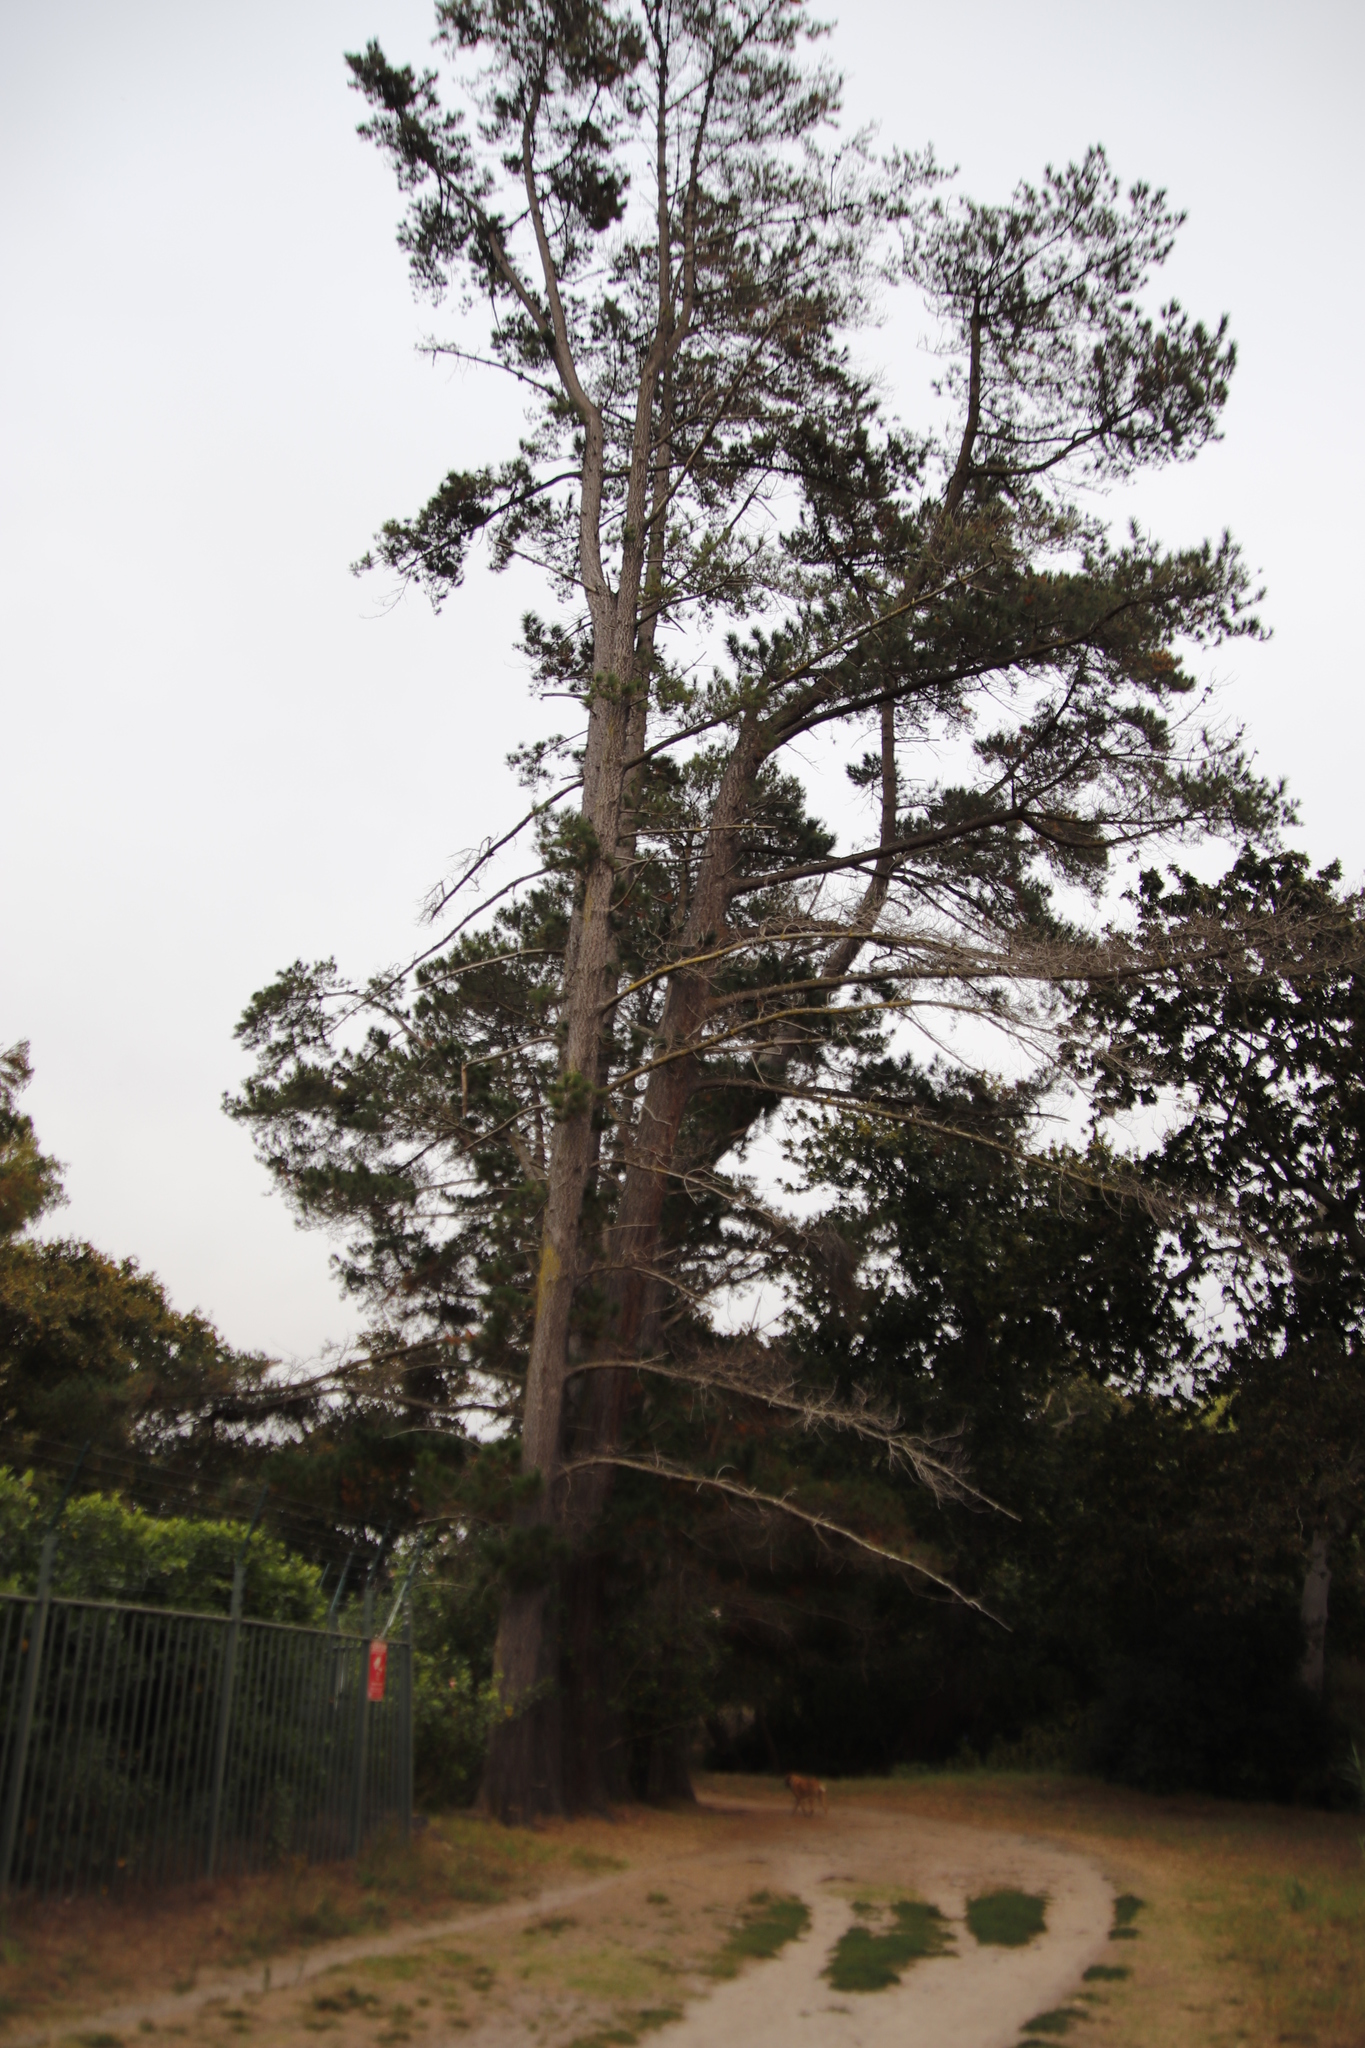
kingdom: Plantae
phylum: Tracheophyta
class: Pinopsida
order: Pinales
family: Pinaceae
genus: Pinus
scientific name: Pinus radiata
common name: Monterey pine
